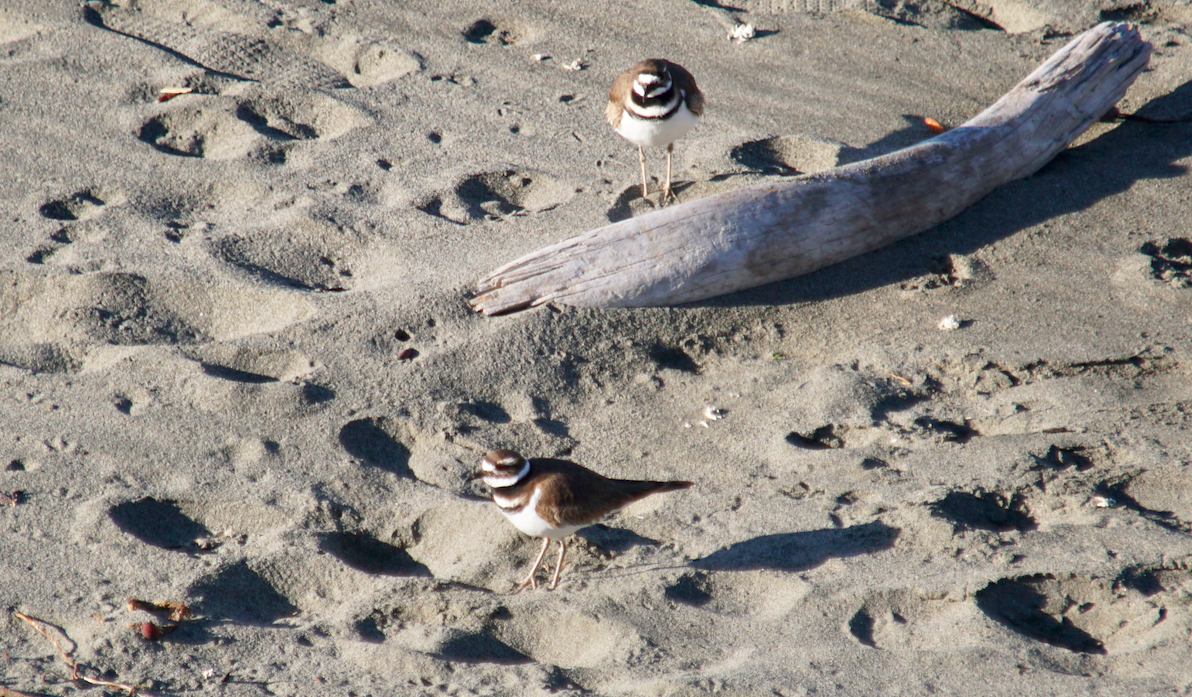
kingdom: Animalia
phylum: Chordata
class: Aves
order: Charadriiformes
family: Charadriidae
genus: Charadrius
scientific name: Charadrius vociferus
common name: Killdeer
